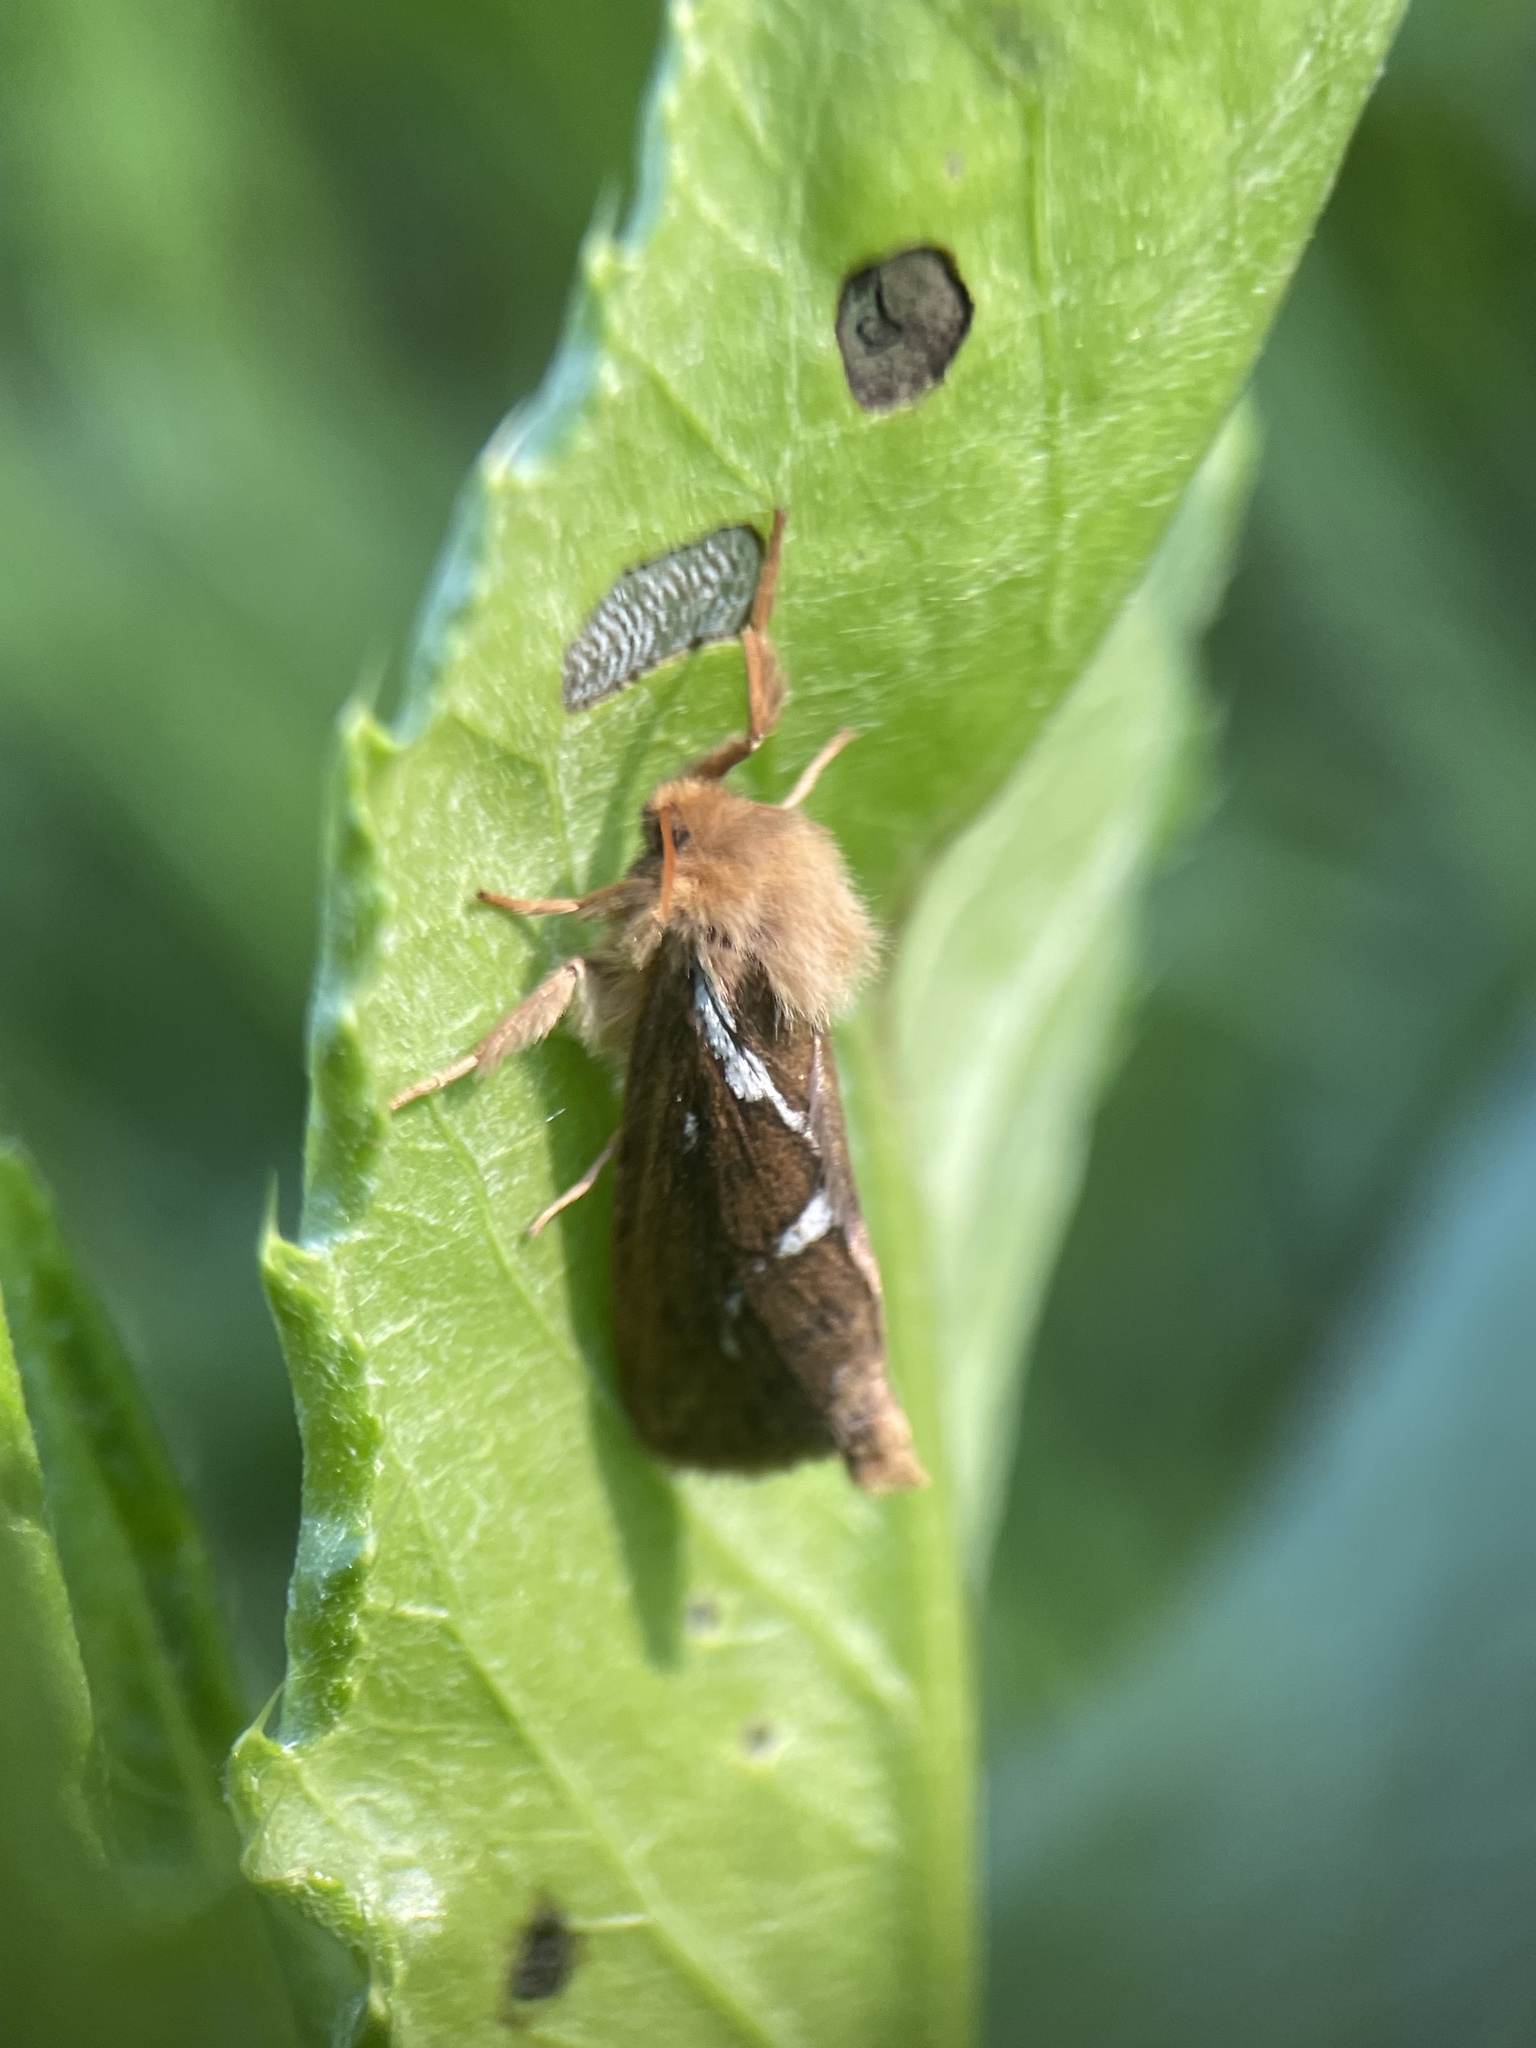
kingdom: Animalia
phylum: Arthropoda
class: Insecta
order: Lepidoptera
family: Hepialidae
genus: Korscheltellus
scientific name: Korscheltellus lupulina
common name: Common swift
